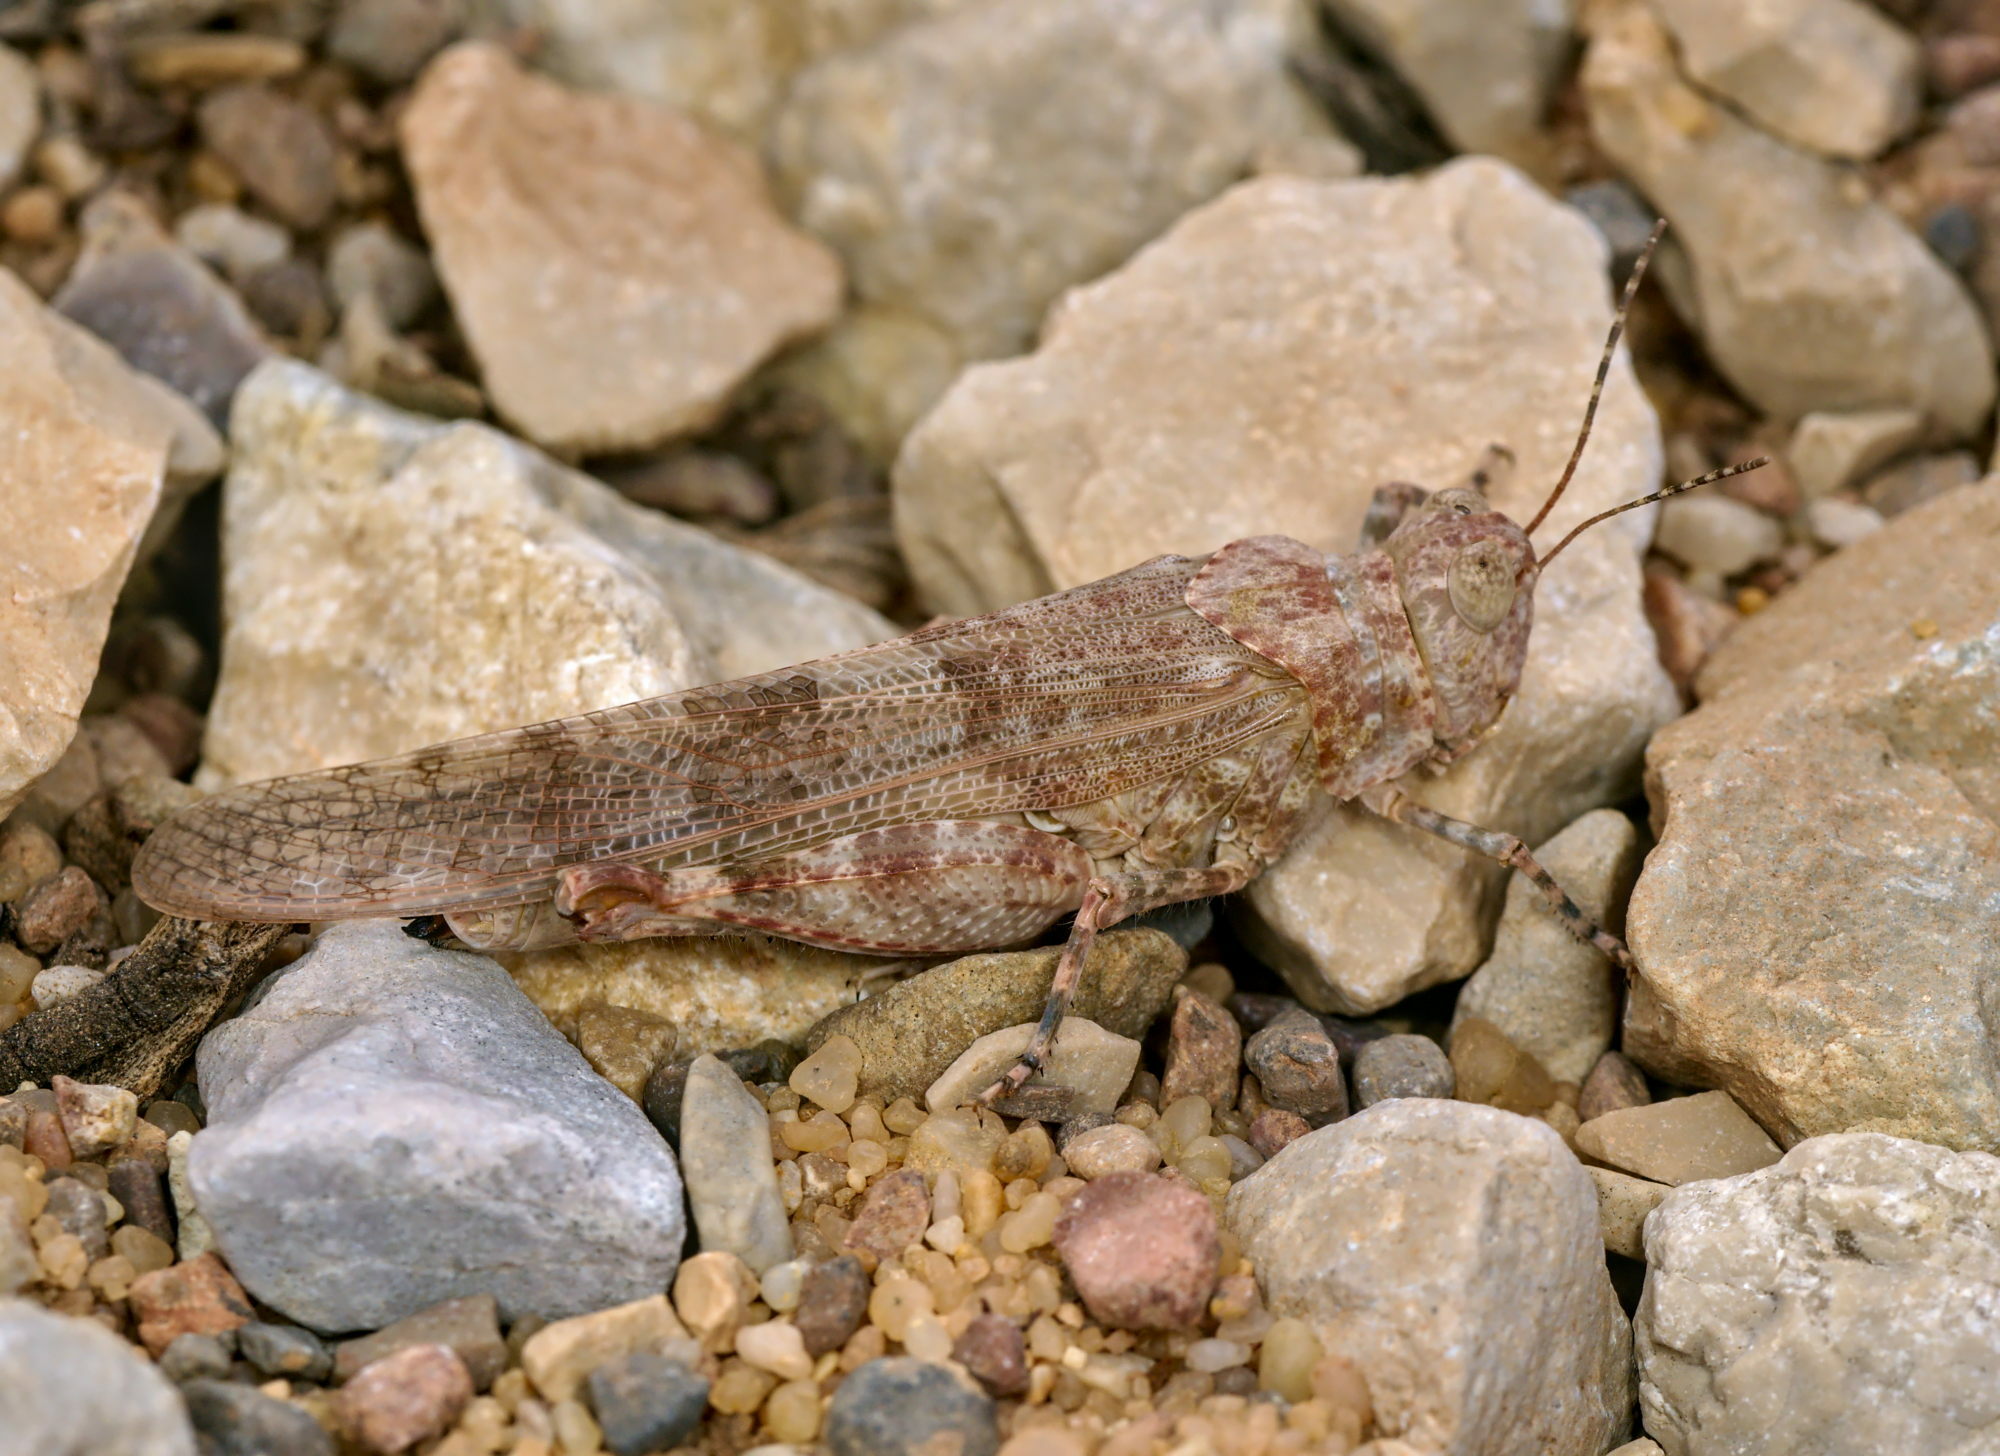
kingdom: Animalia
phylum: Arthropoda
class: Insecta
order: Orthoptera
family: Acrididae
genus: Sphingonotus
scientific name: Sphingonotus rubescens
